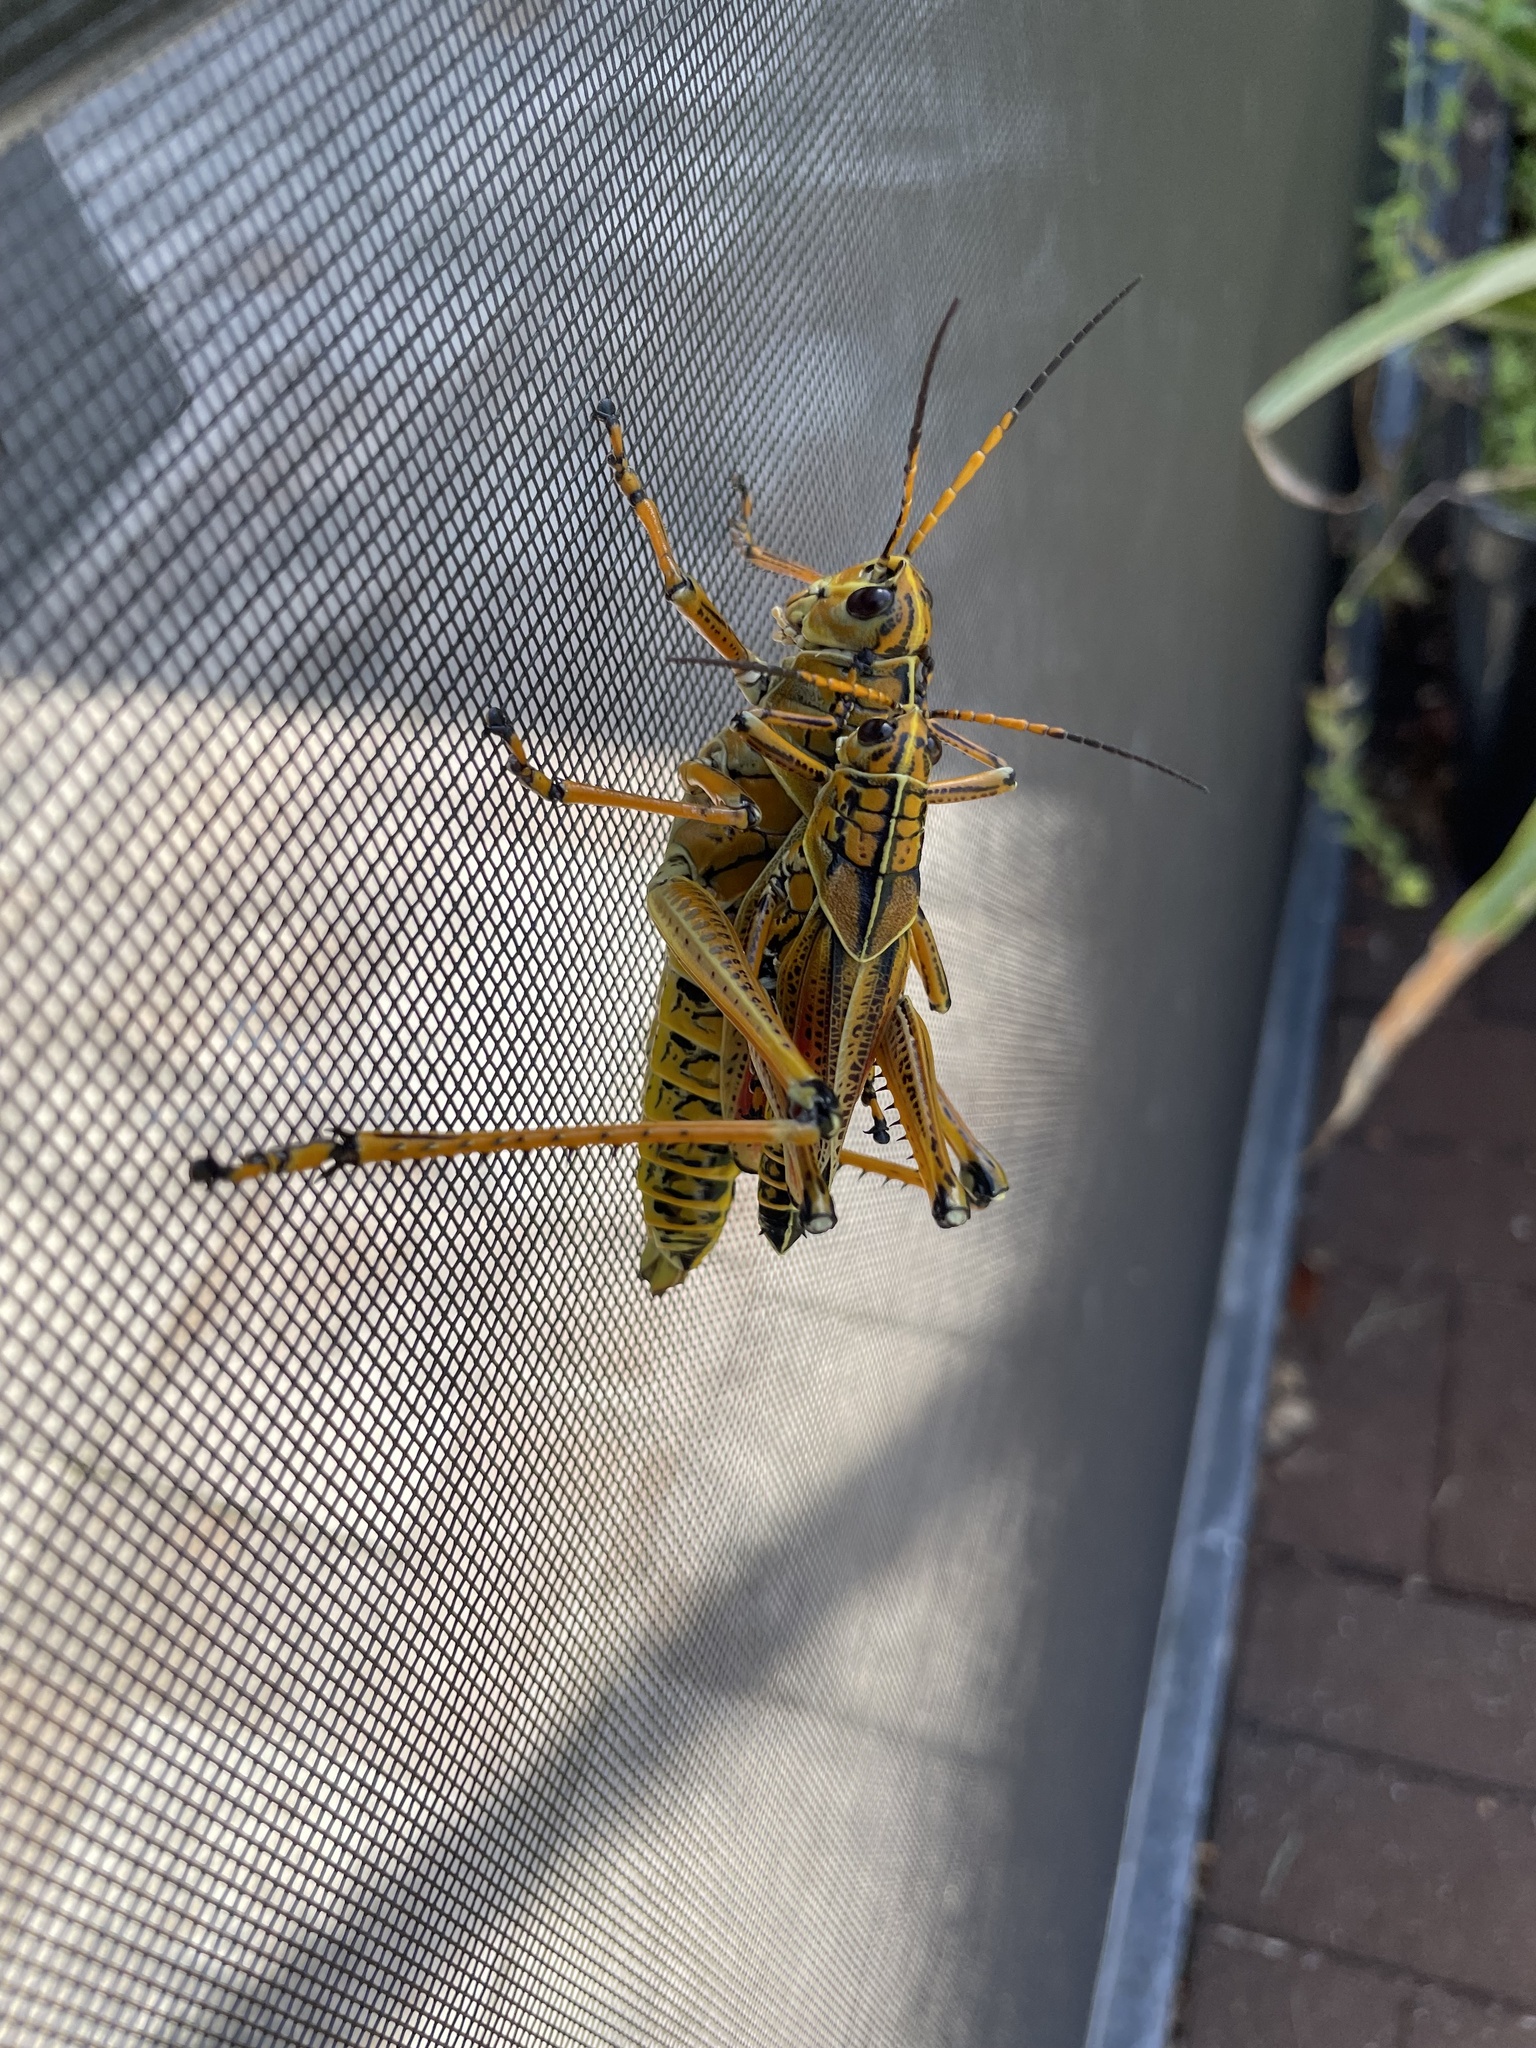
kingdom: Animalia
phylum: Arthropoda
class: Insecta
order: Orthoptera
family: Romaleidae
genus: Romalea
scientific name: Romalea microptera
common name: Eastern lubber grasshopper
